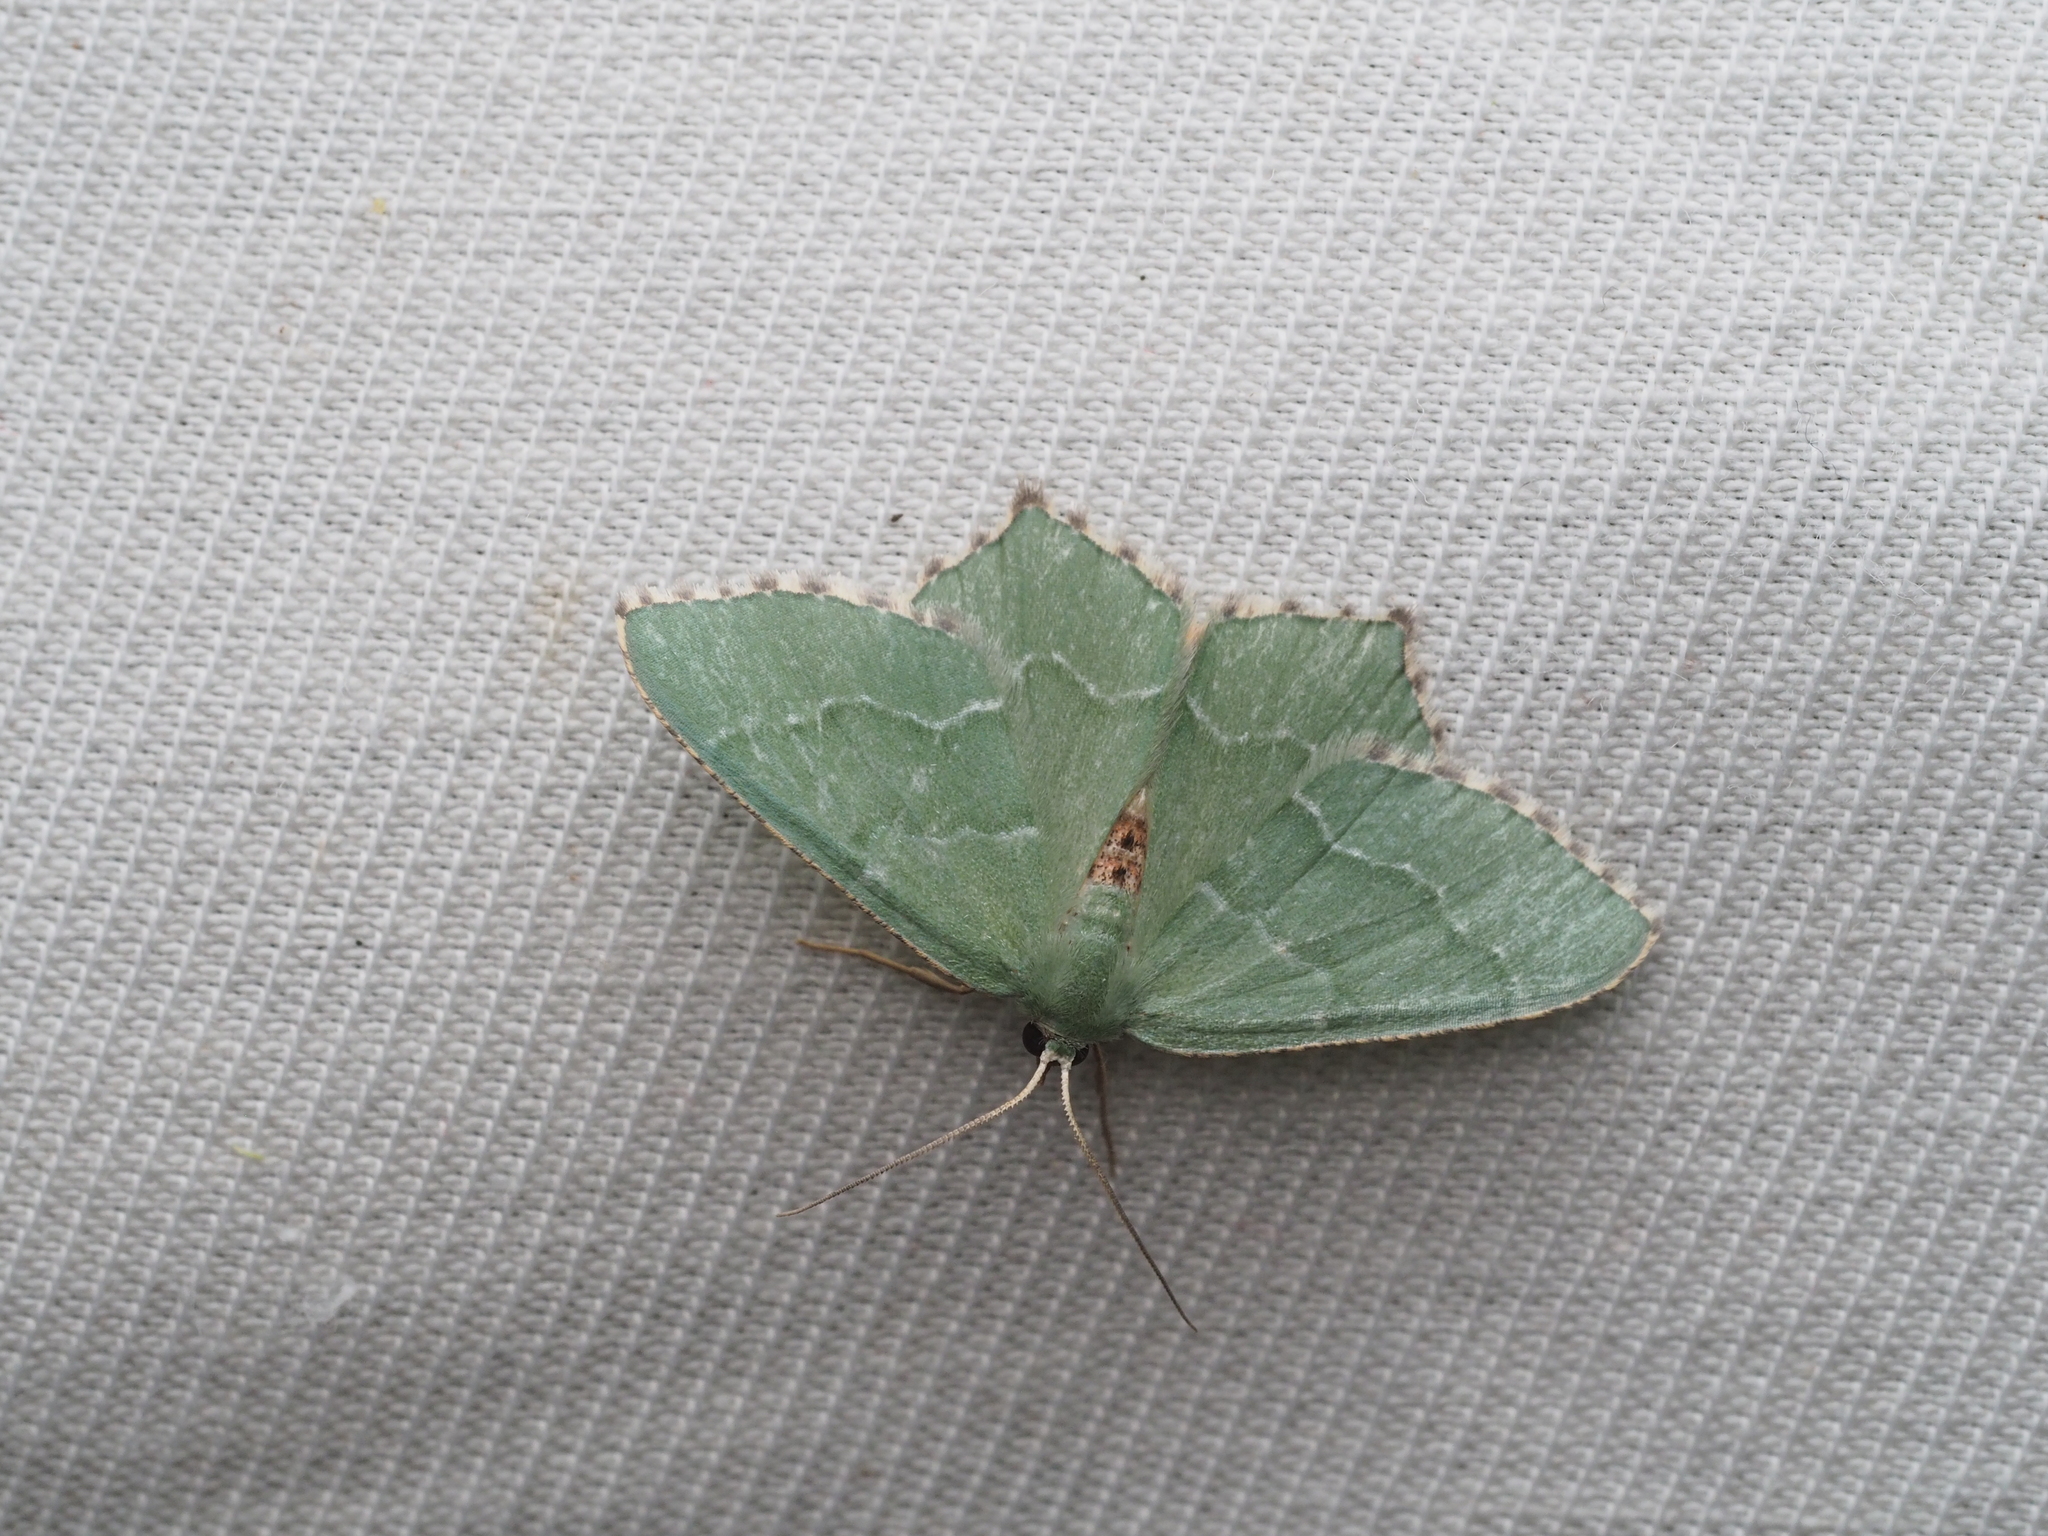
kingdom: Animalia
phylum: Arthropoda
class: Insecta
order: Lepidoptera
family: Geometridae
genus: Hemithea
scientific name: Hemithea aestivaria
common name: Common emerald
